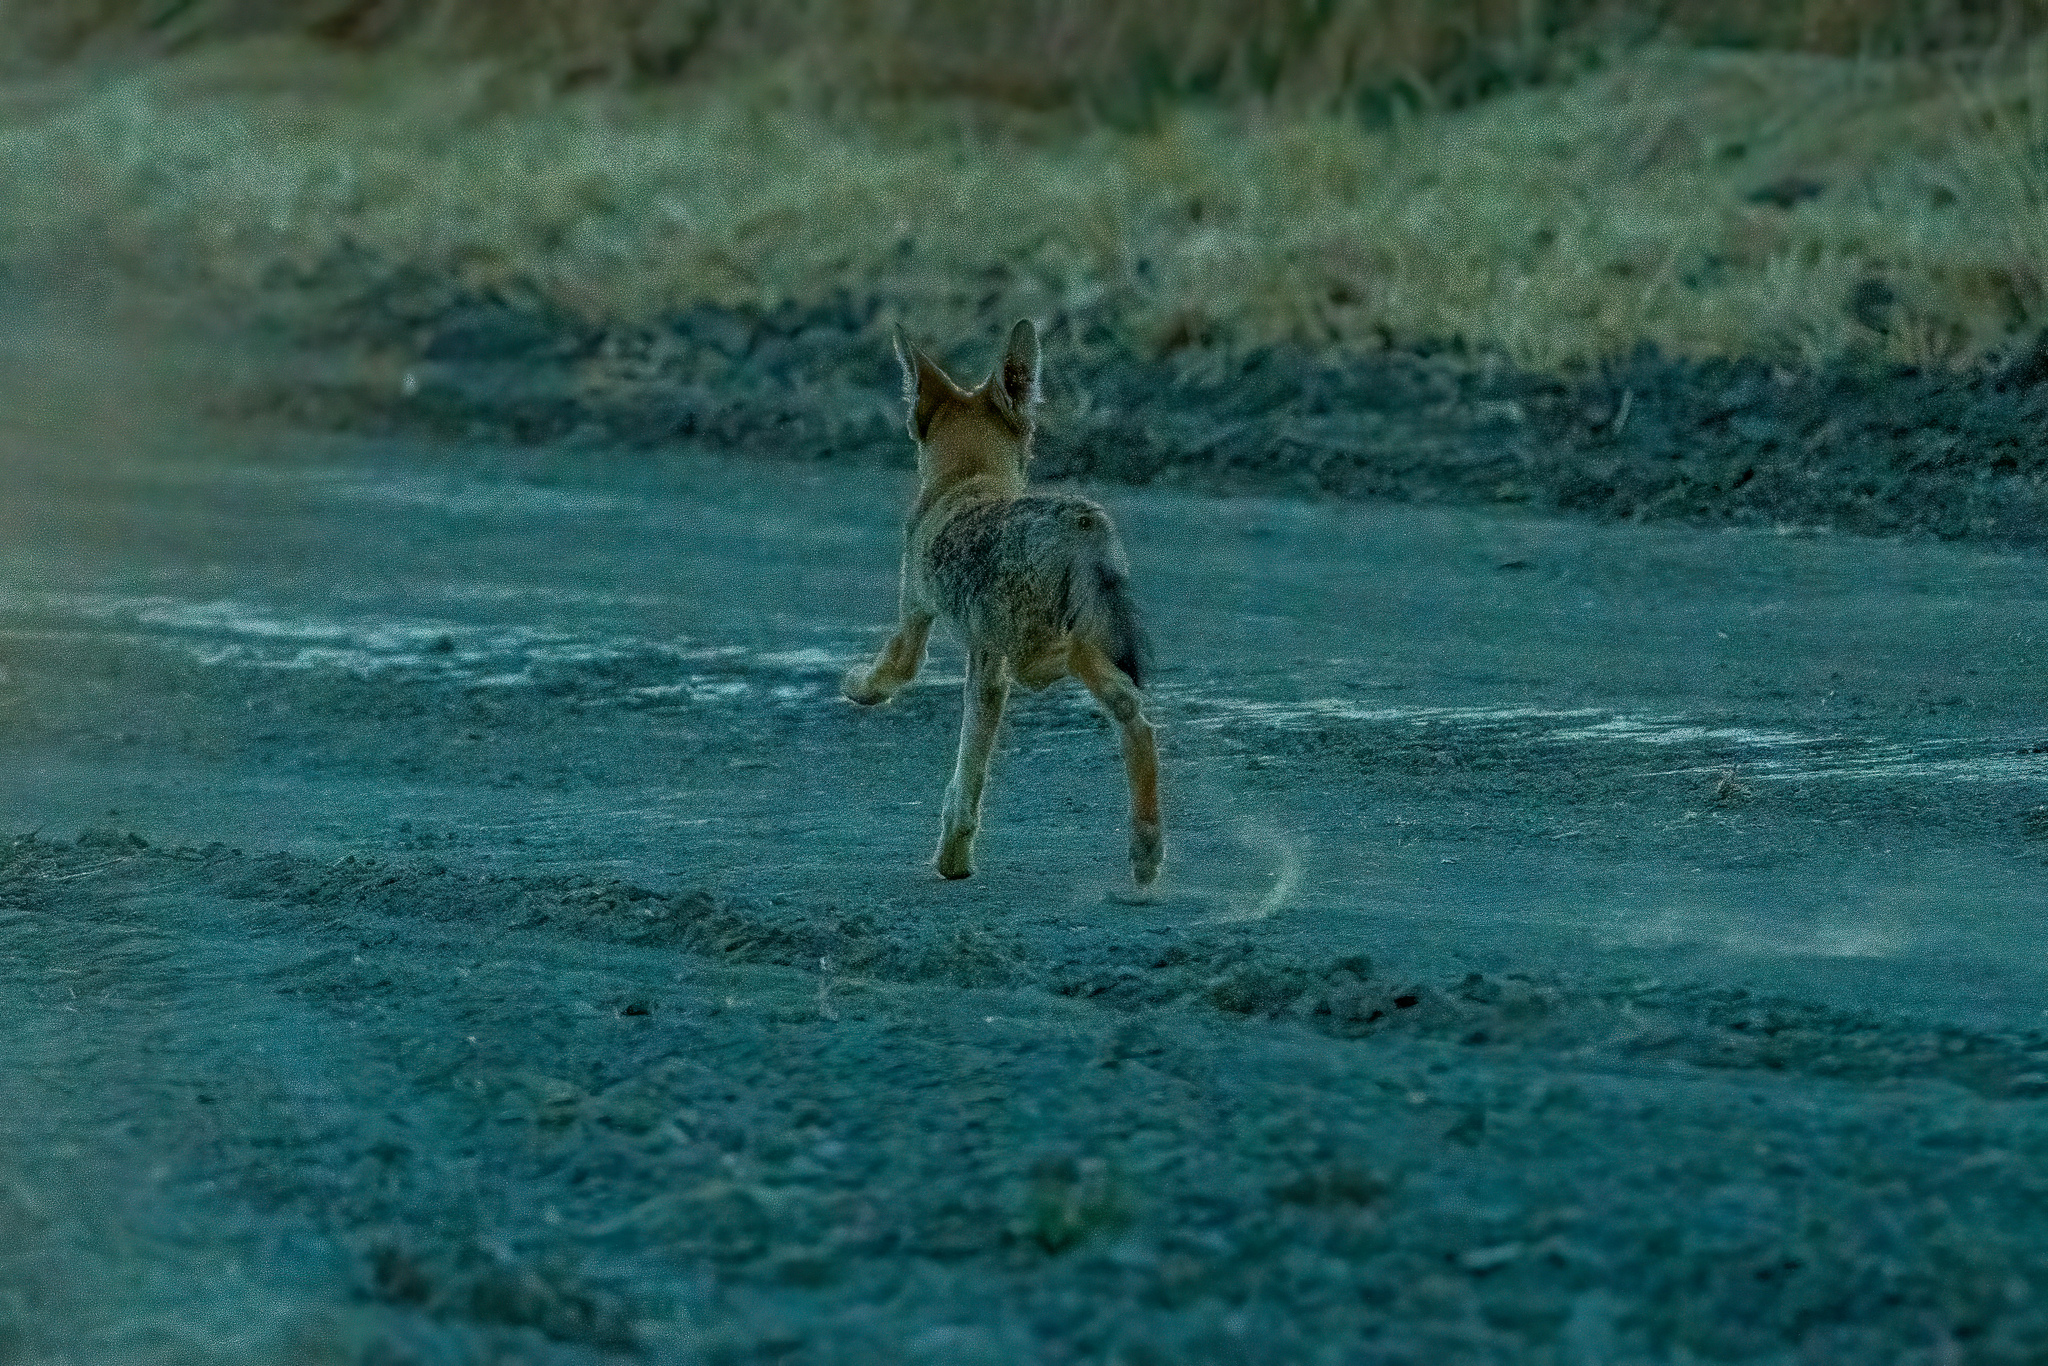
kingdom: Animalia
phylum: Chordata
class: Mammalia
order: Carnivora
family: Canidae
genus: Canis
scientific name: Canis latrans
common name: Coyote
